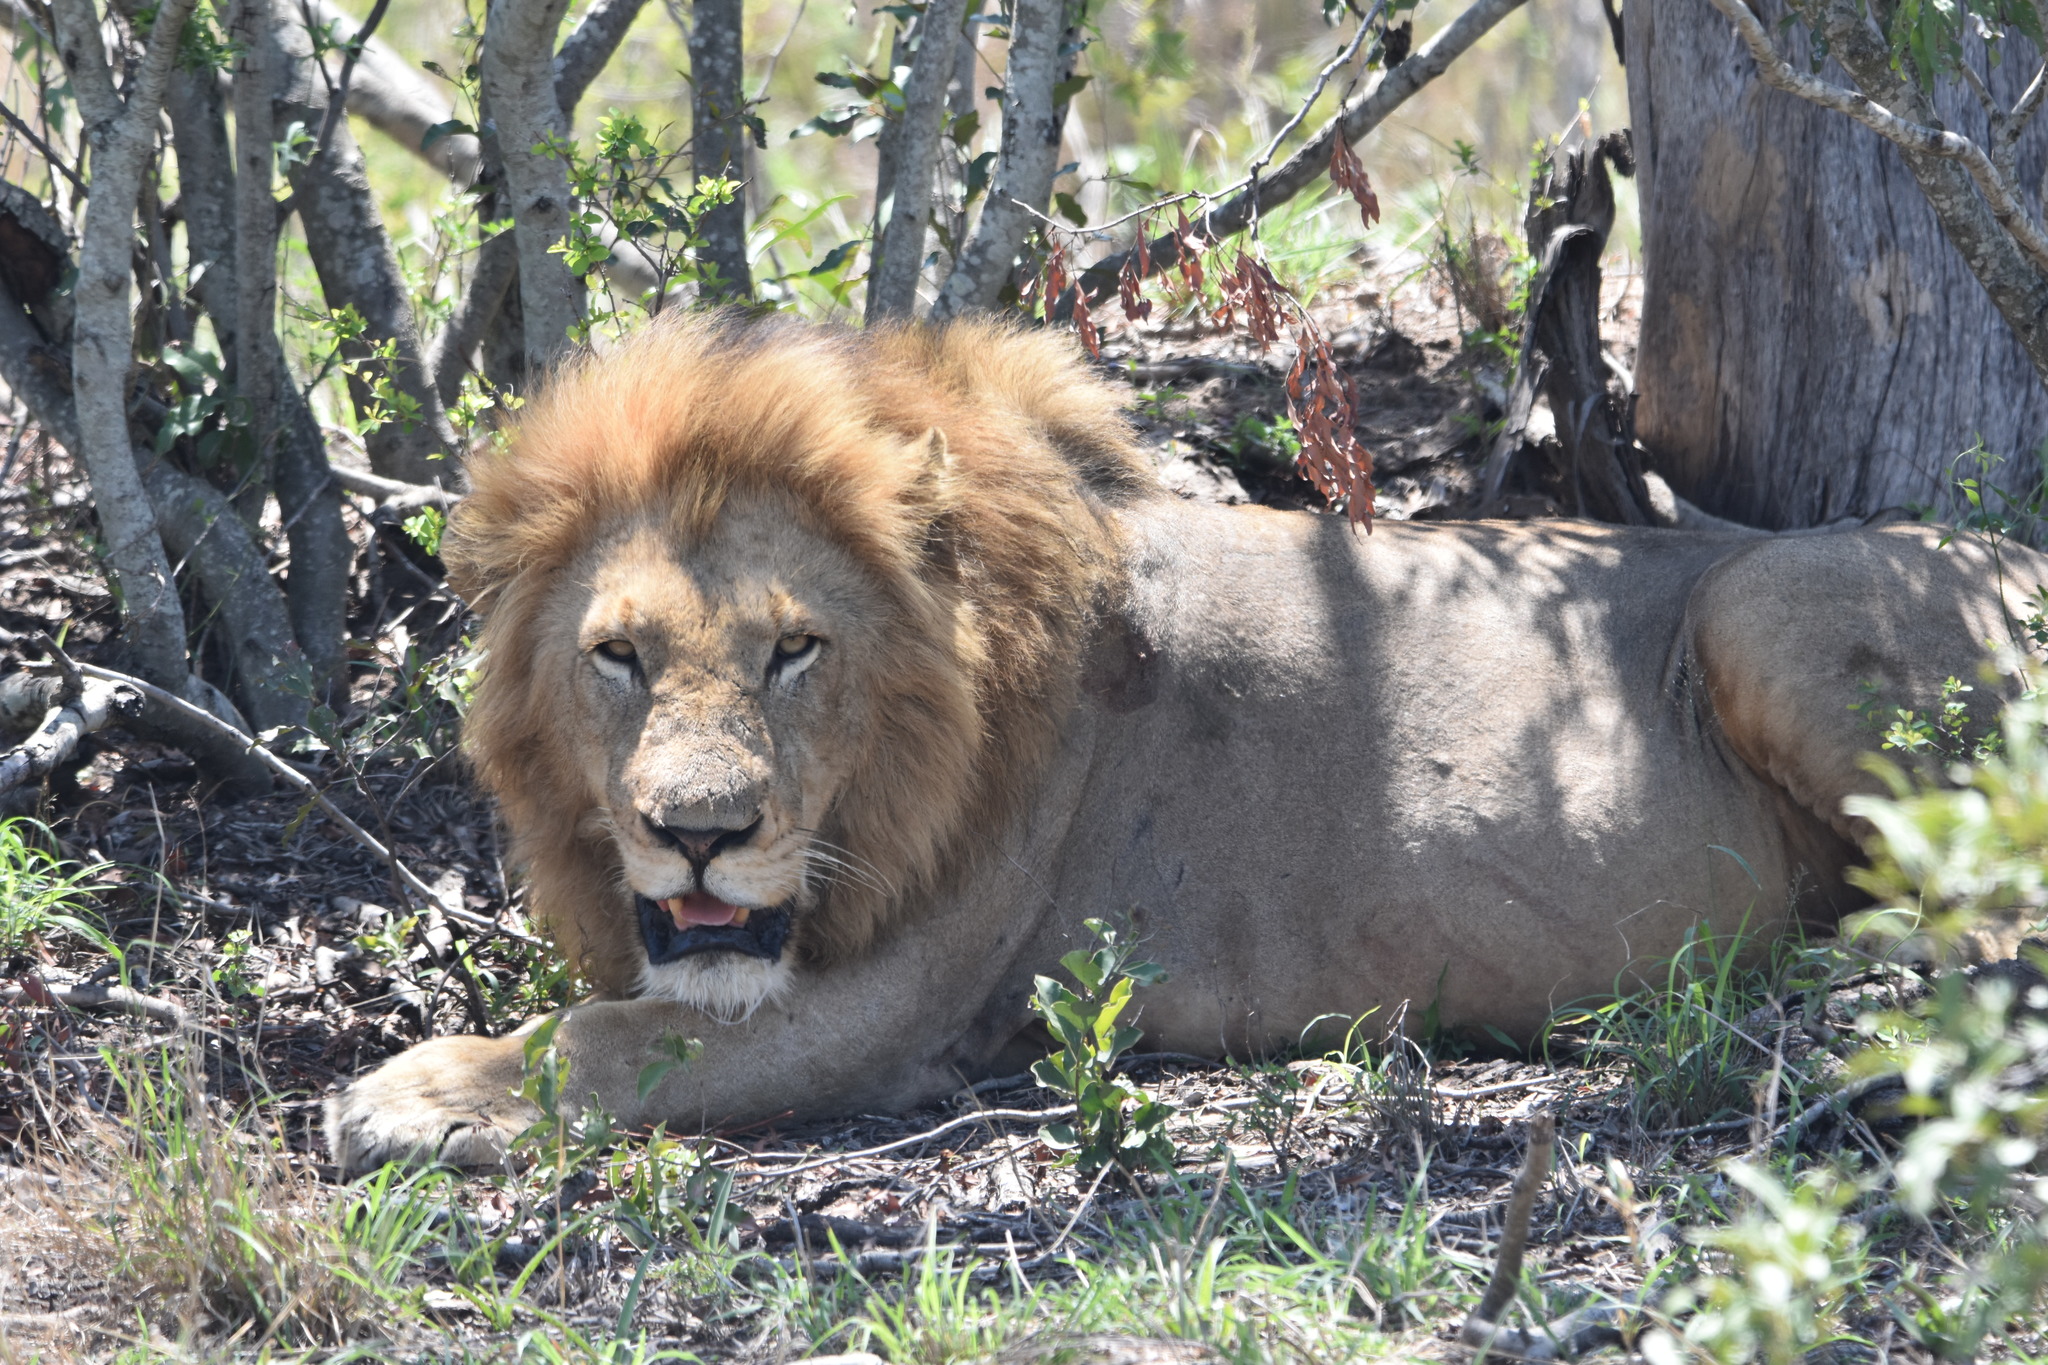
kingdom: Animalia
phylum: Chordata
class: Mammalia
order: Carnivora
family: Felidae
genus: Panthera
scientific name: Panthera leo
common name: Lion
